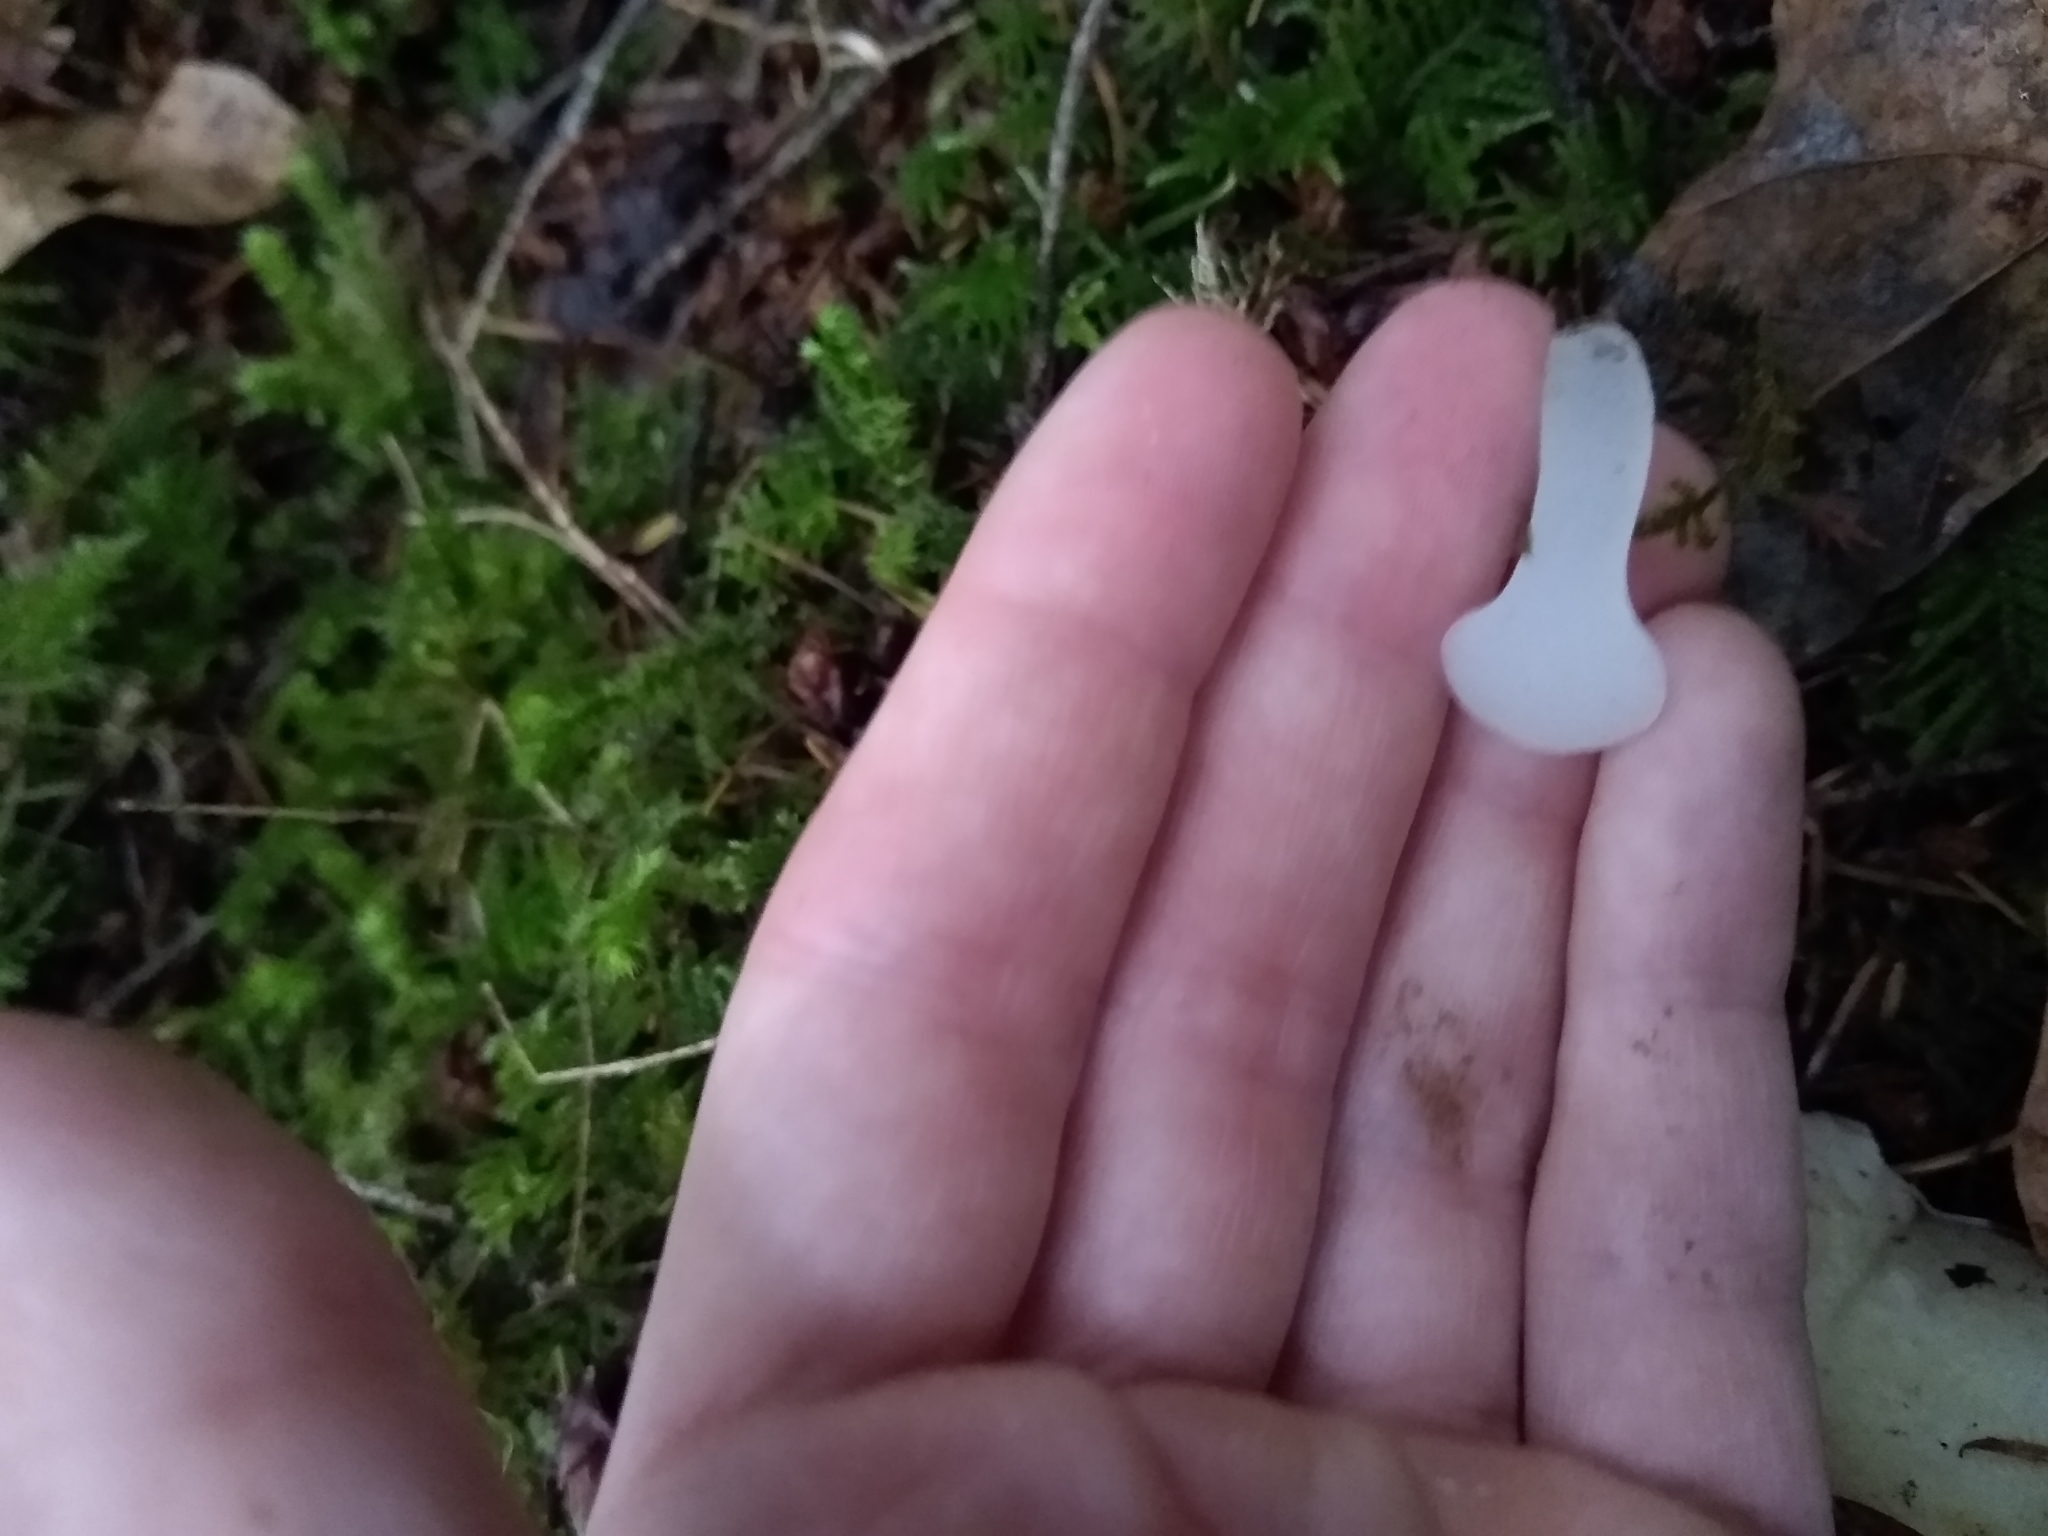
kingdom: Fungi
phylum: Basidiomycota
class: Agaricomycetes
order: Auriculariales
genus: Pseudohydnum
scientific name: Pseudohydnum gelatinosum
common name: Jelly tongue
